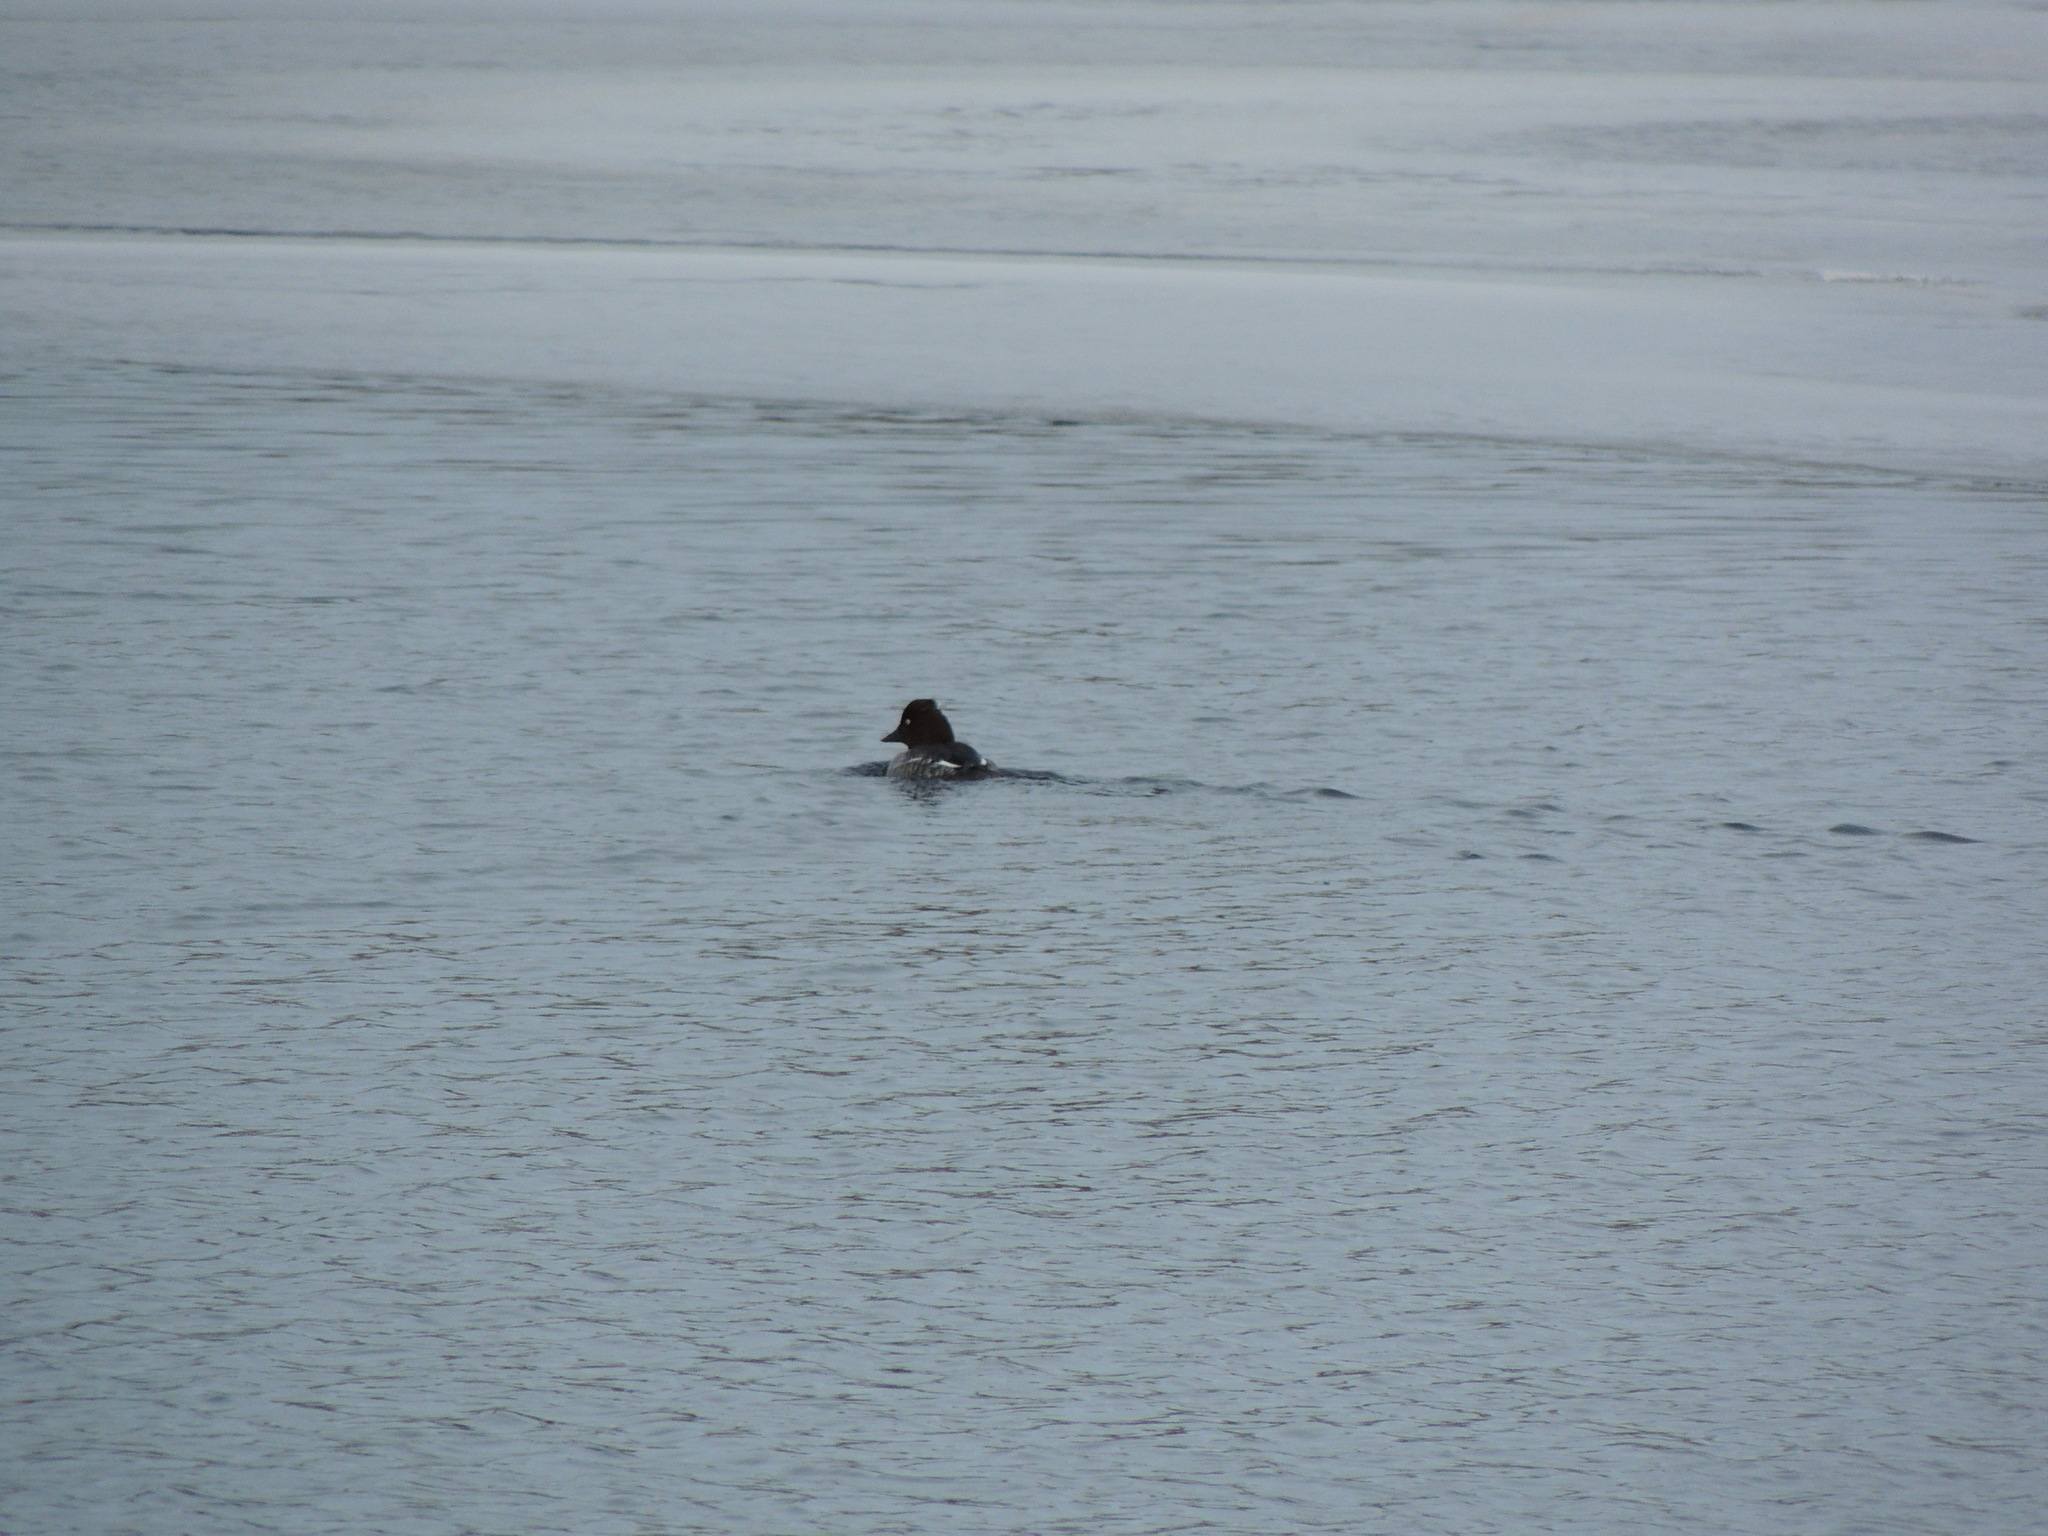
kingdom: Animalia
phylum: Chordata
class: Aves
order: Anseriformes
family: Anatidae
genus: Bucephala
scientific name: Bucephala clangula
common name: Common goldeneye
